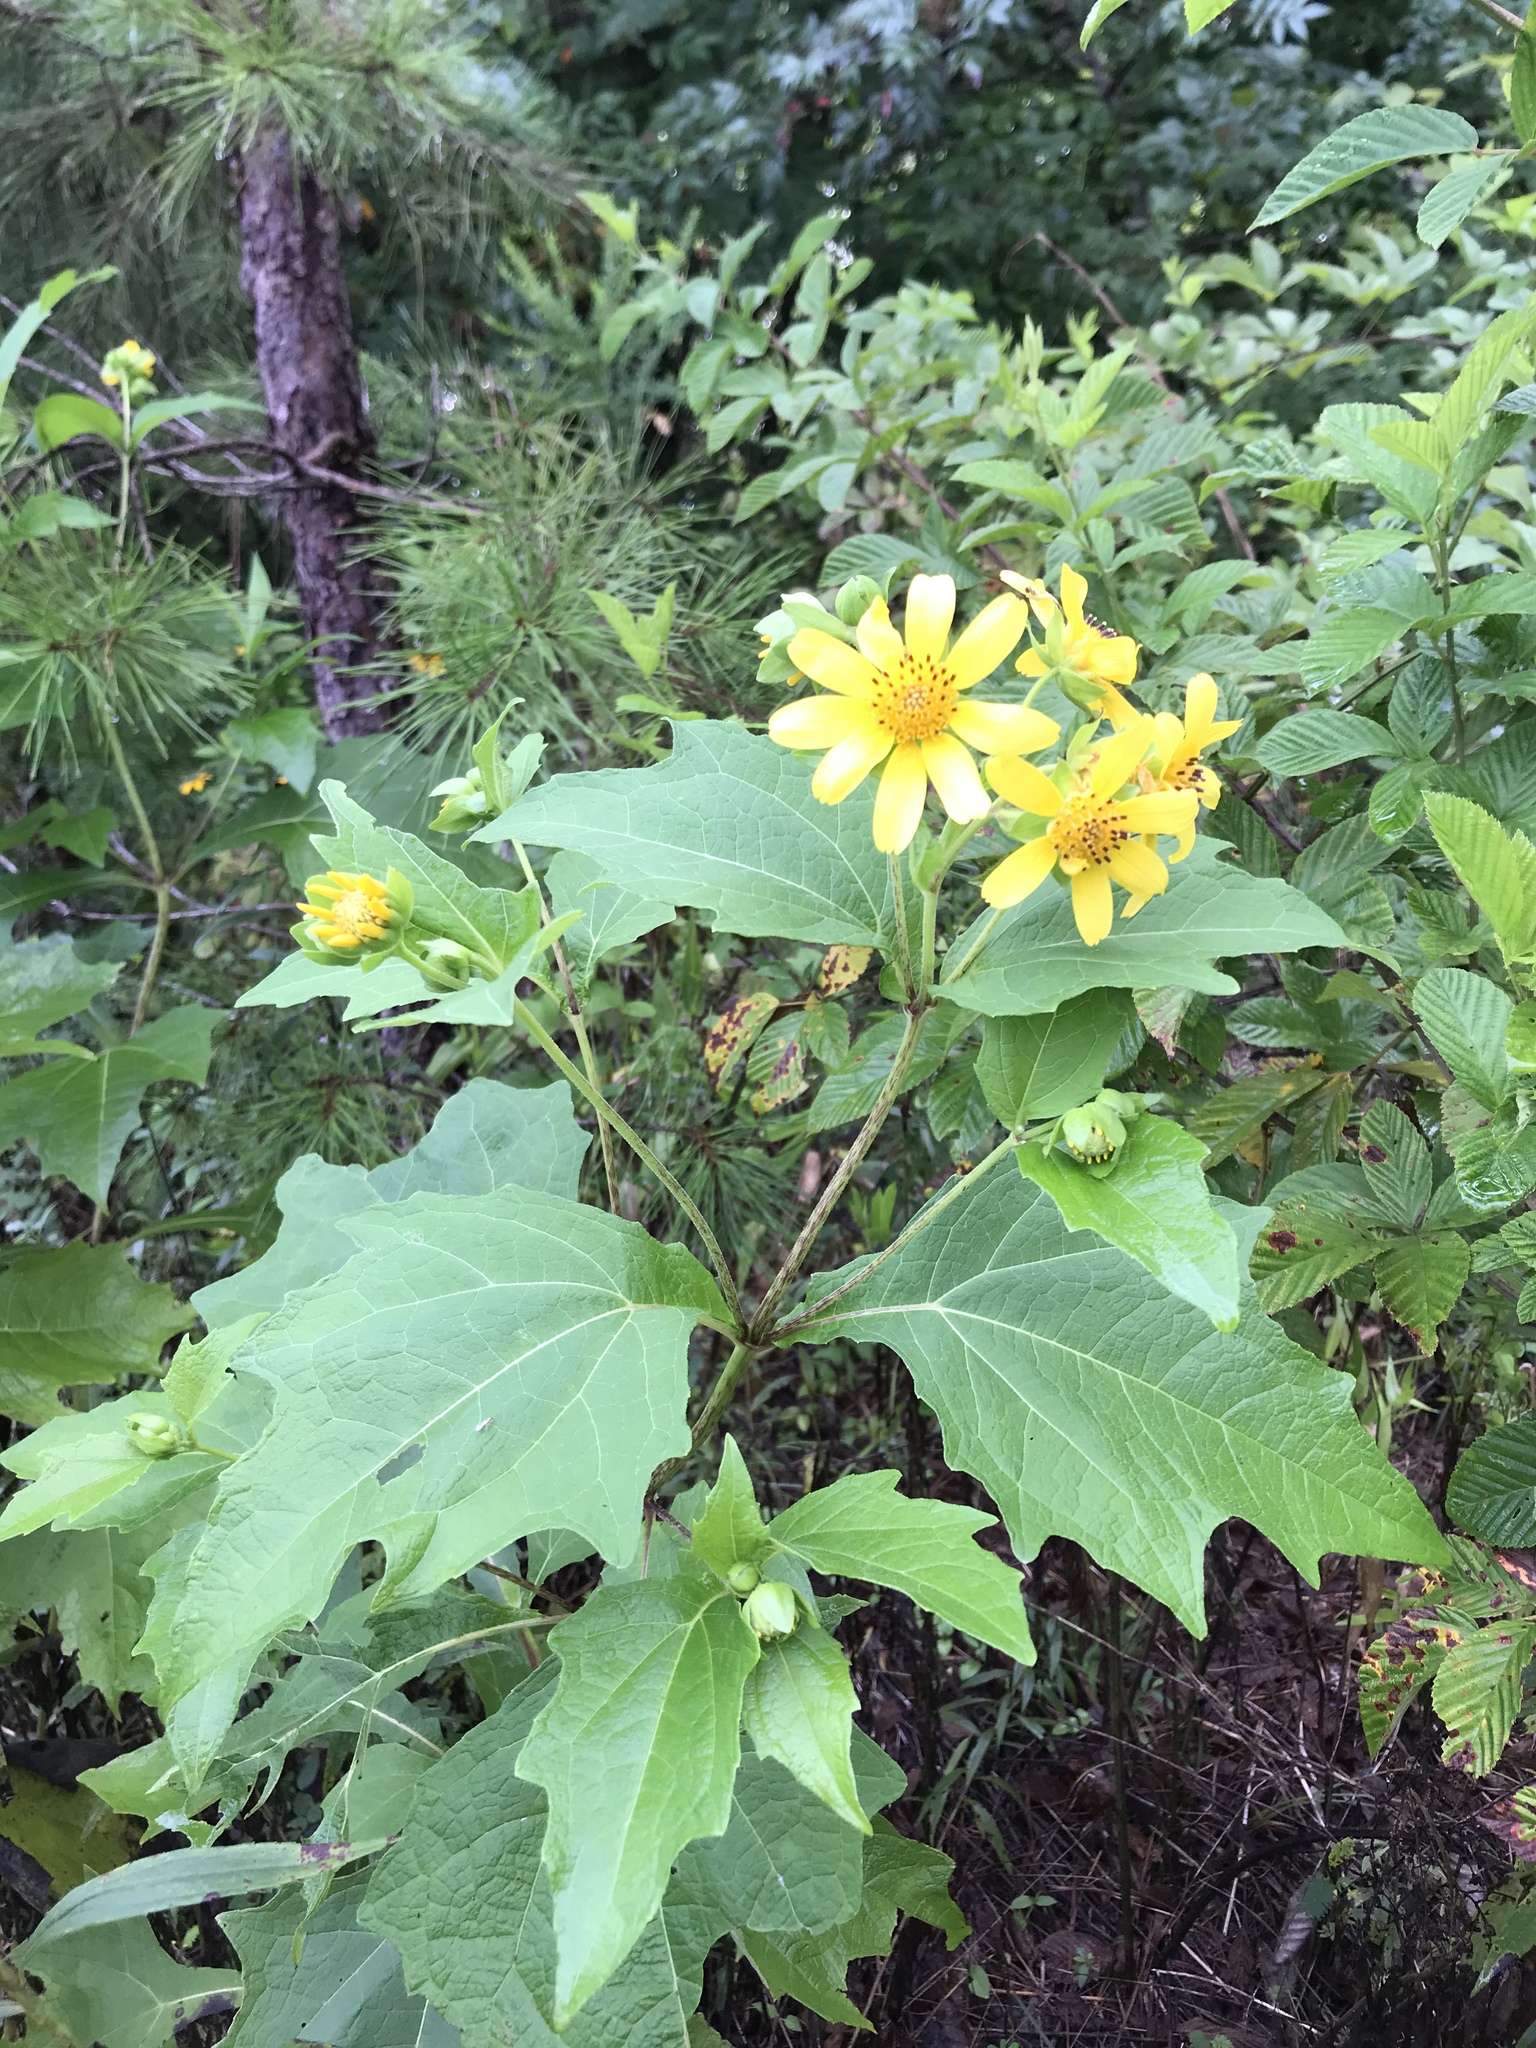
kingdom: Plantae
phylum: Tracheophyta
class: Magnoliopsida
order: Asterales
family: Asteraceae
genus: Smallanthus
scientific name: Smallanthus uvedalia
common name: Bear's-foot
